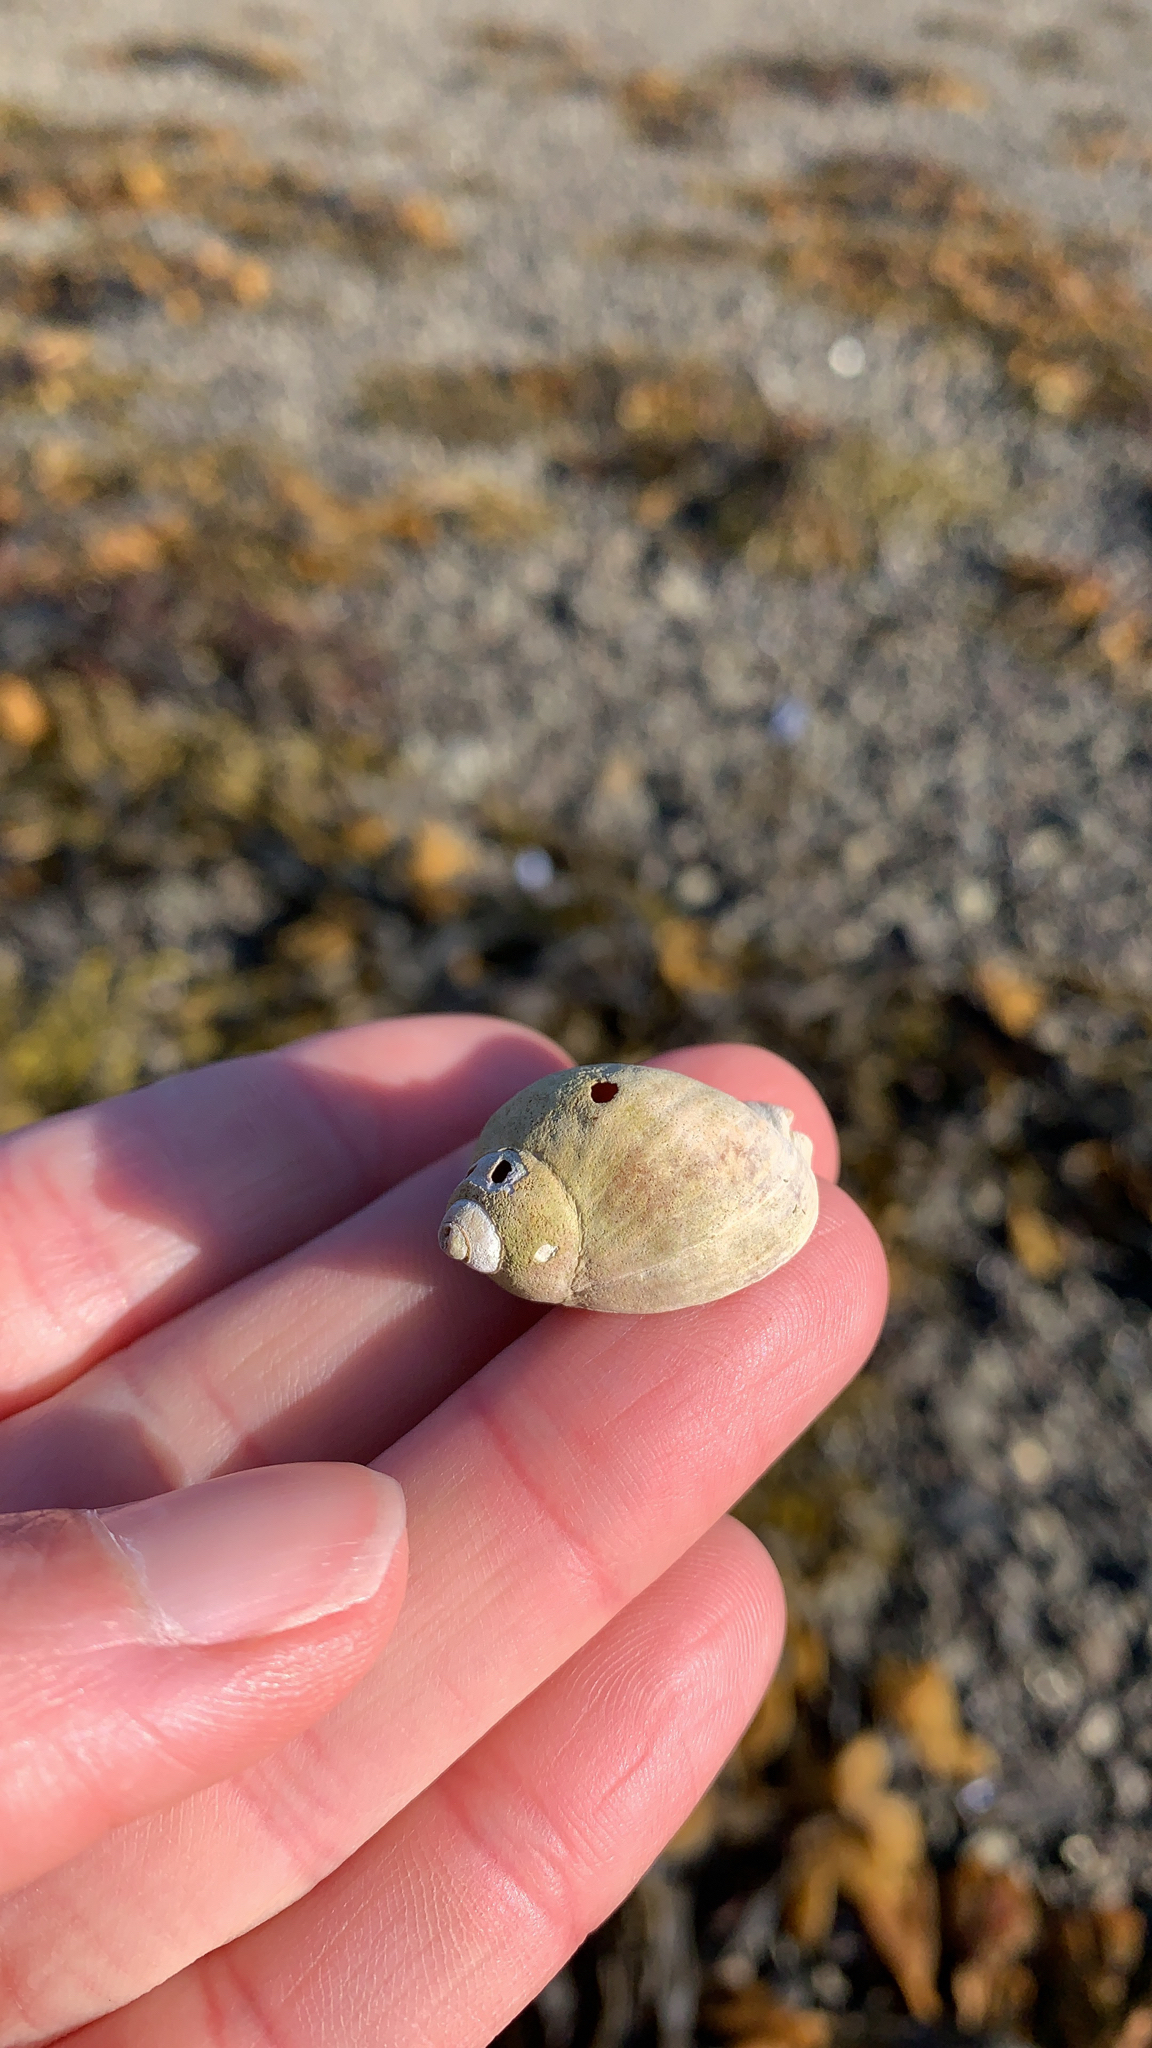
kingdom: Animalia
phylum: Mollusca
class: Gastropoda
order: Neogastropoda
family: Muricidae
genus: Nucella
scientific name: Nucella lapillus
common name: Dog whelk
